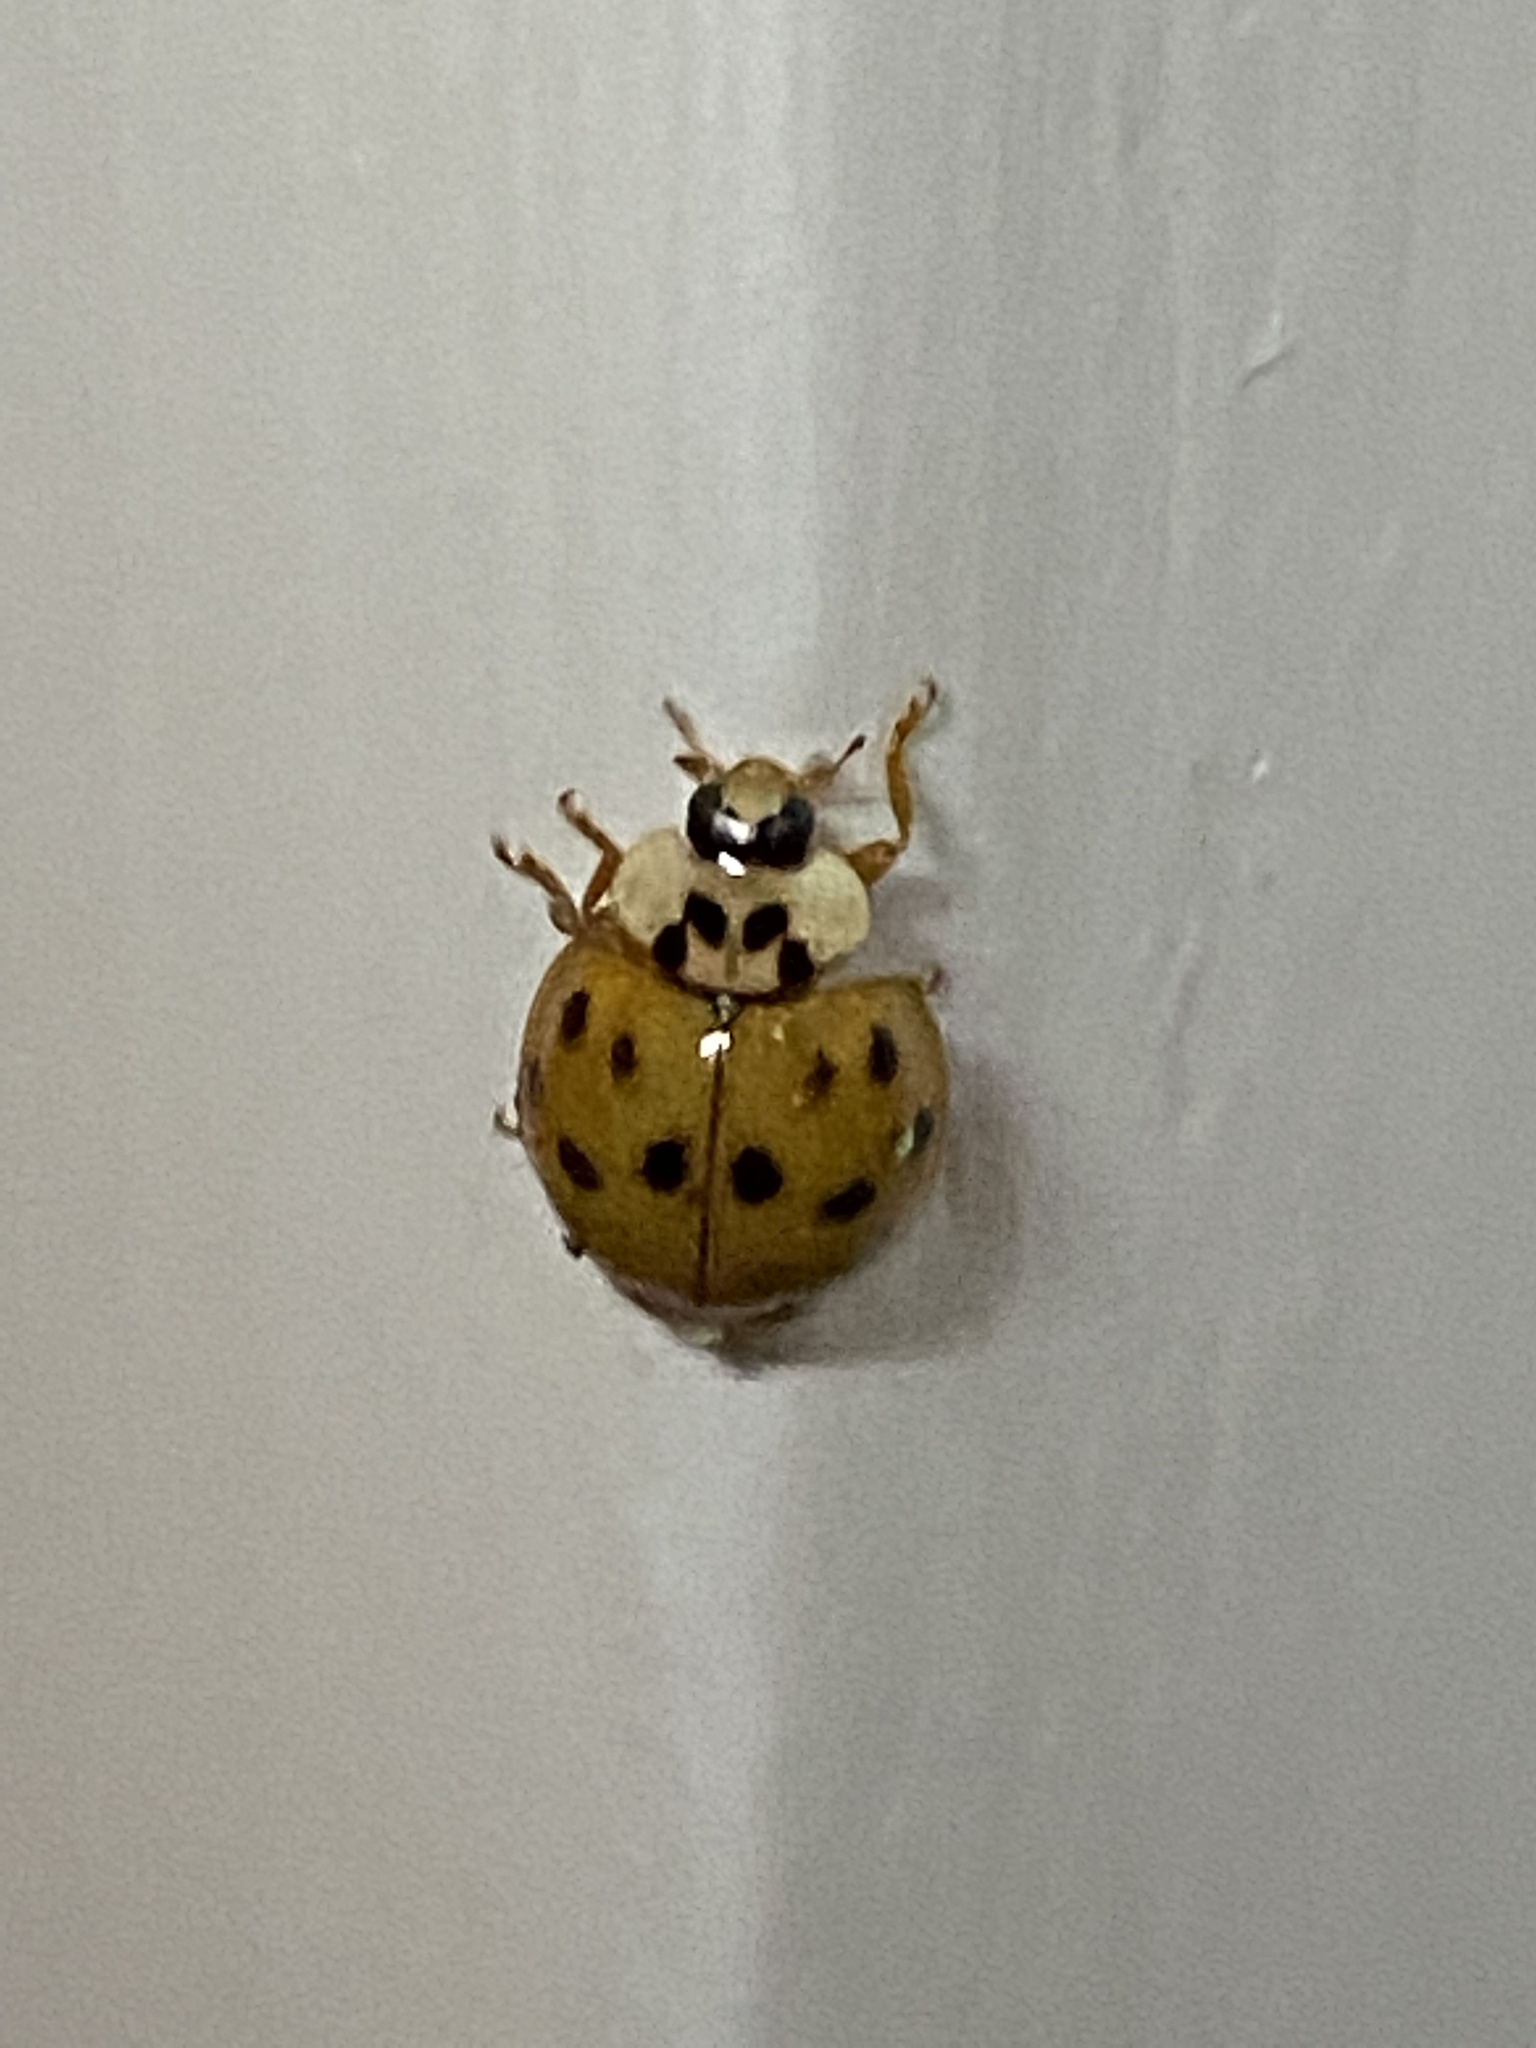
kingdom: Animalia
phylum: Arthropoda
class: Insecta
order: Coleoptera
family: Coccinellidae
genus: Harmonia
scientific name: Harmonia axyridis
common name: Harlequin ladybird
